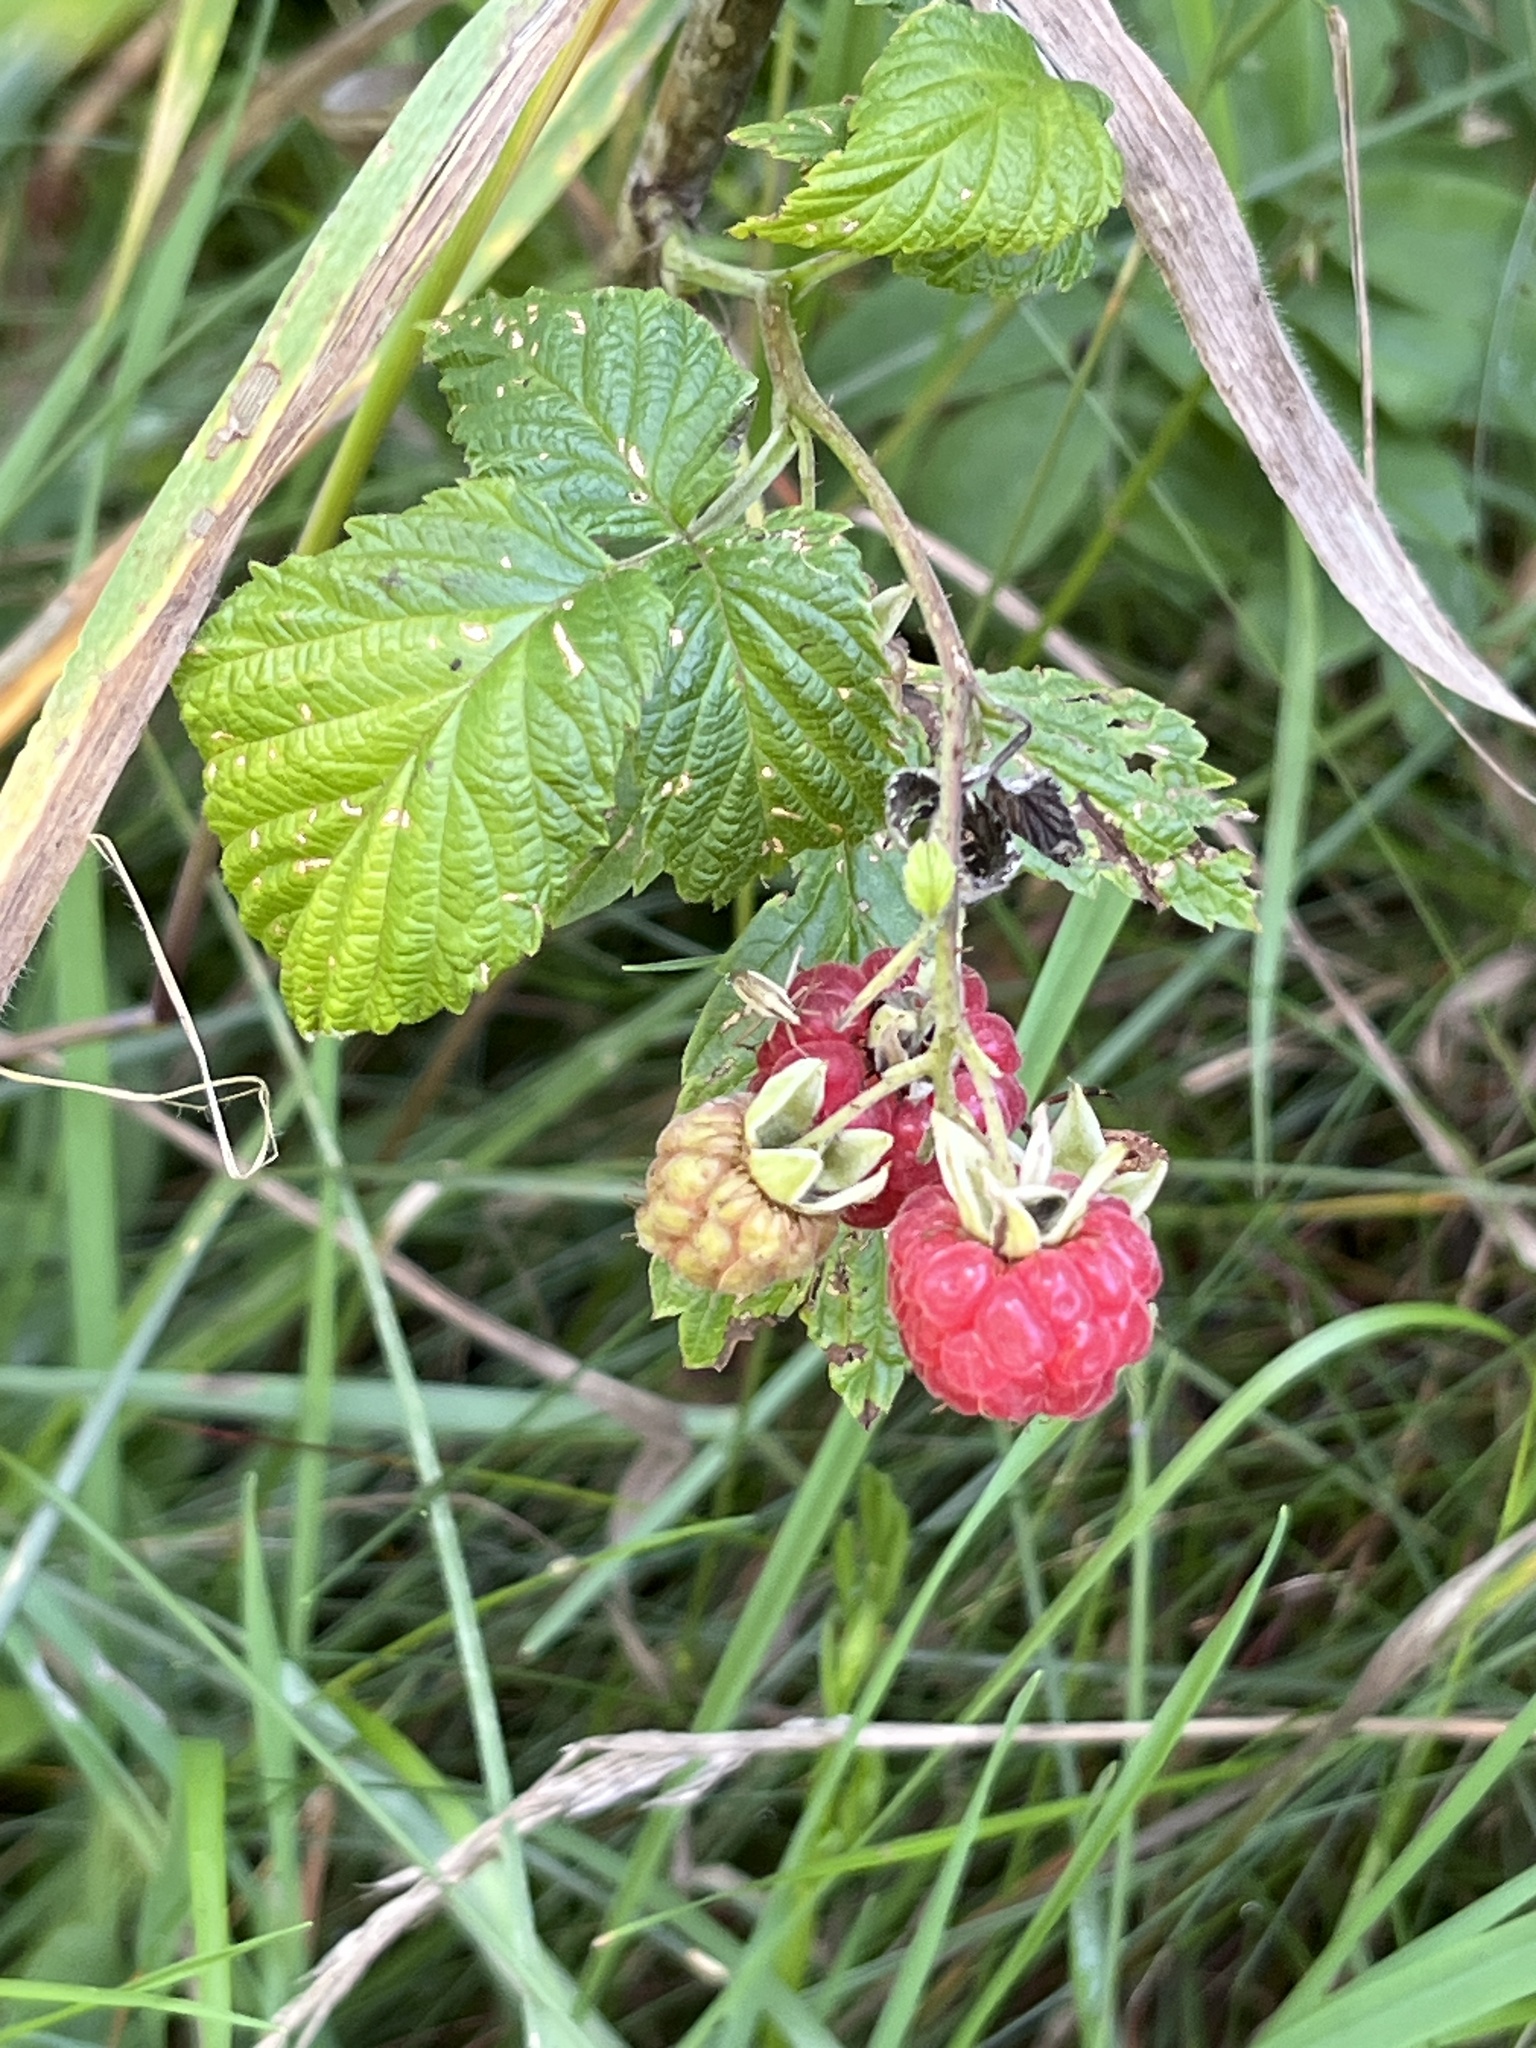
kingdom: Plantae
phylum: Tracheophyta
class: Magnoliopsida
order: Rosales
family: Rosaceae
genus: Rubus
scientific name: Rubus idaeus
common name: Raspberry
